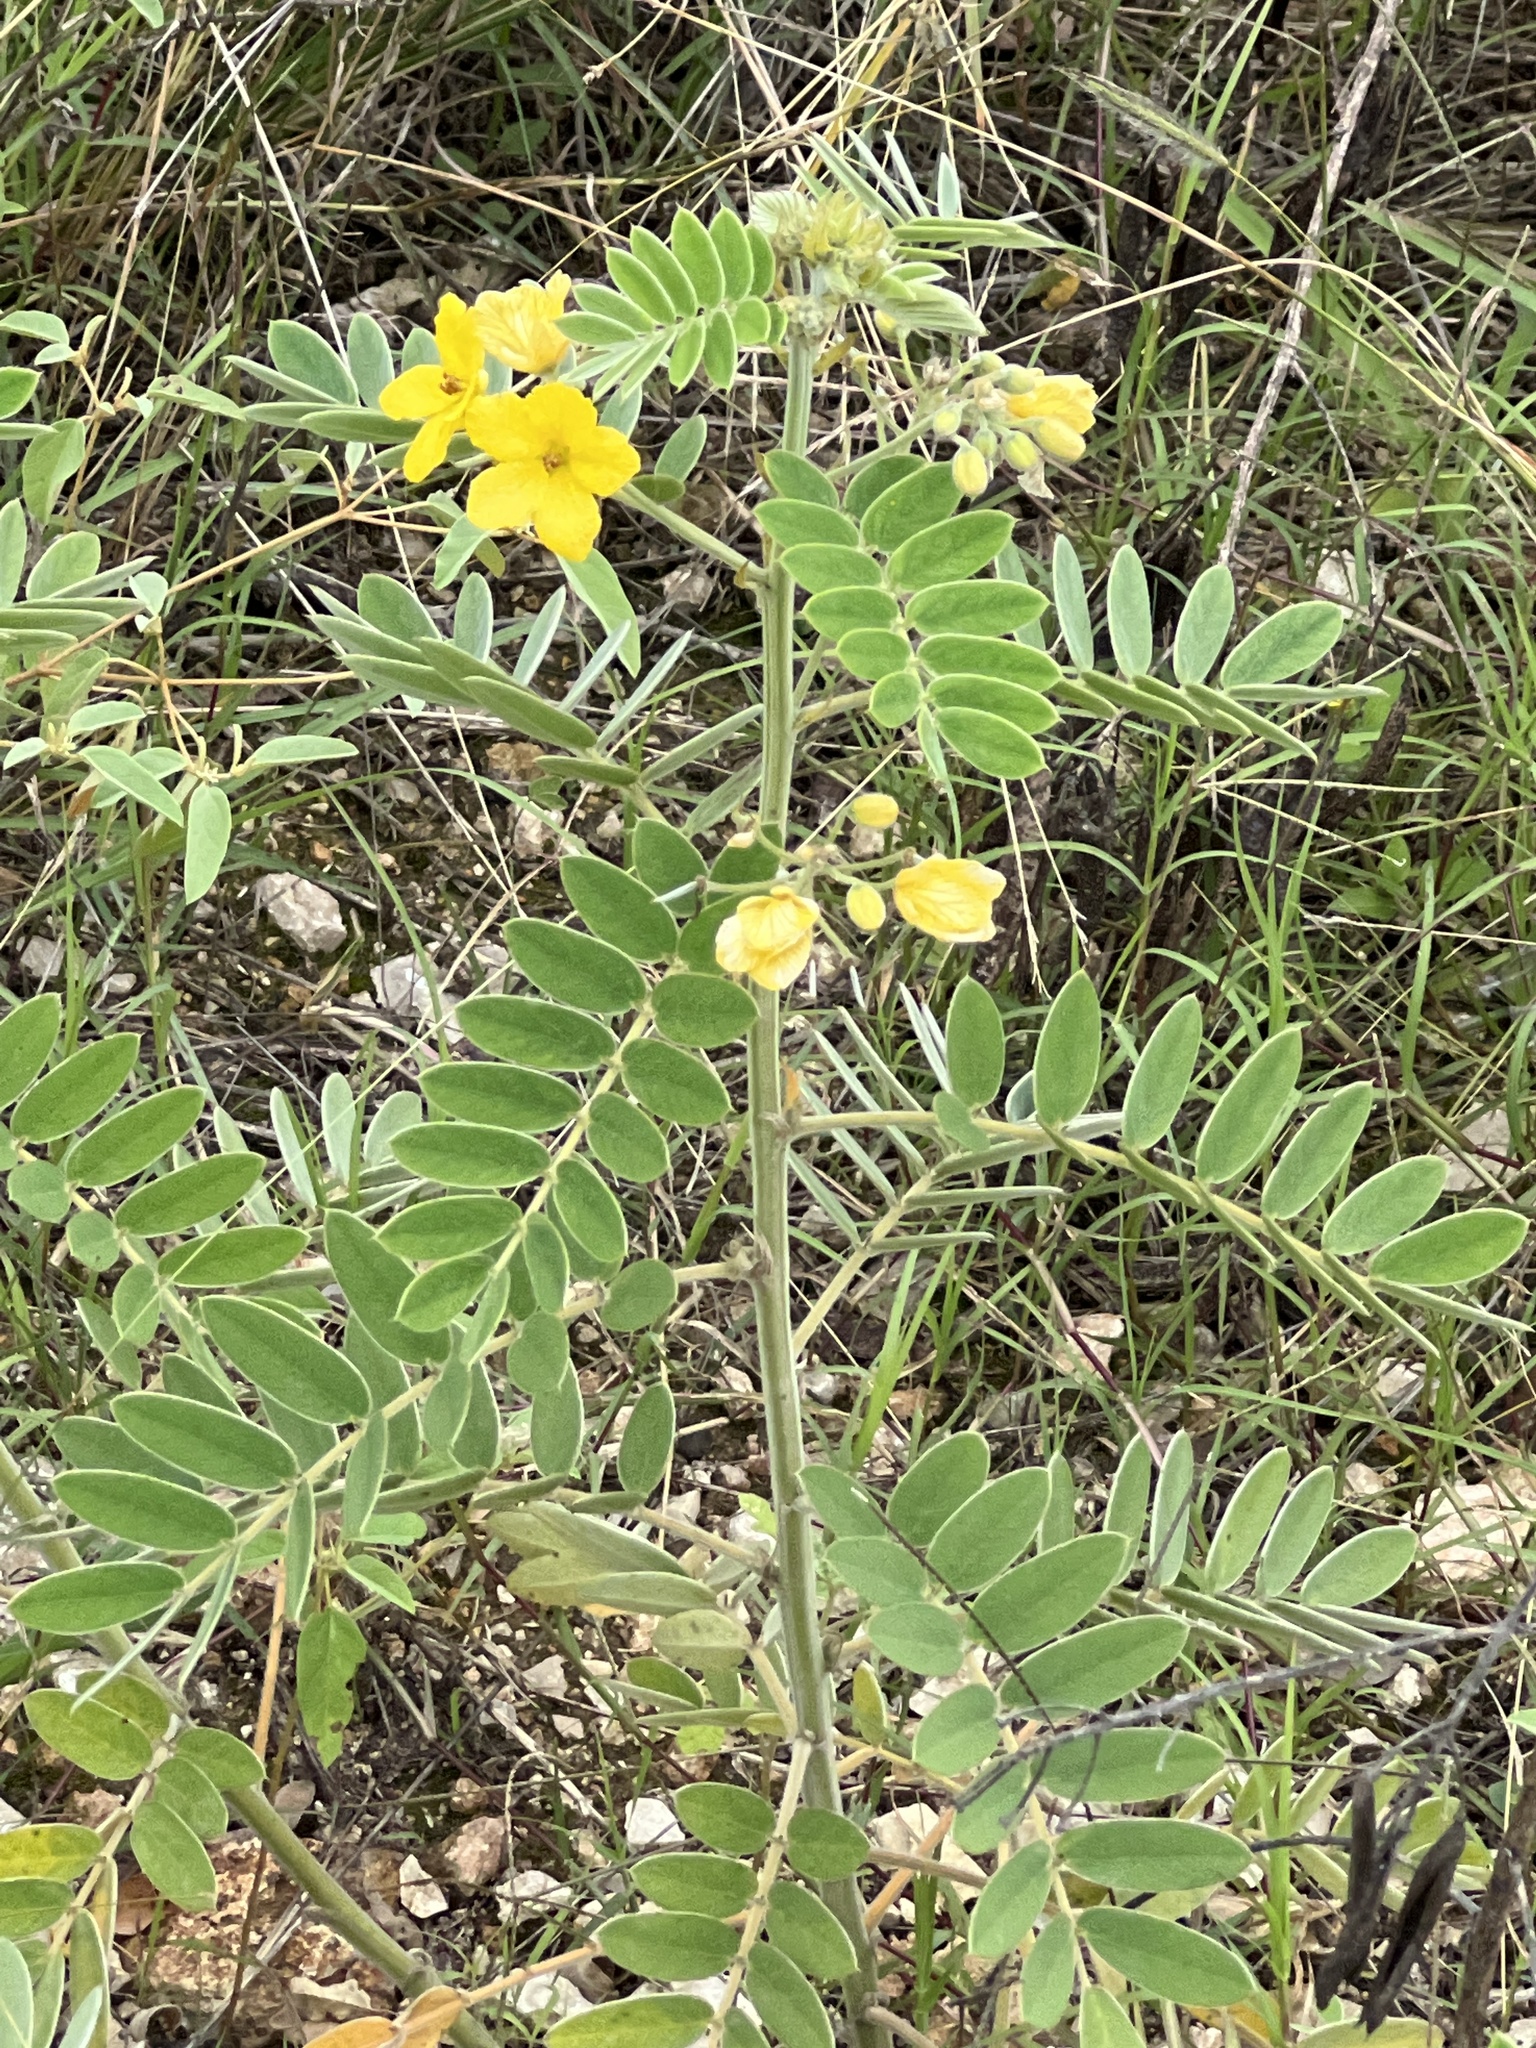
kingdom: Plantae
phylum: Tracheophyta
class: Magnoliopsida
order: Fabales
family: Fabaceae
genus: Senna
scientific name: Senna lindheimeriana
